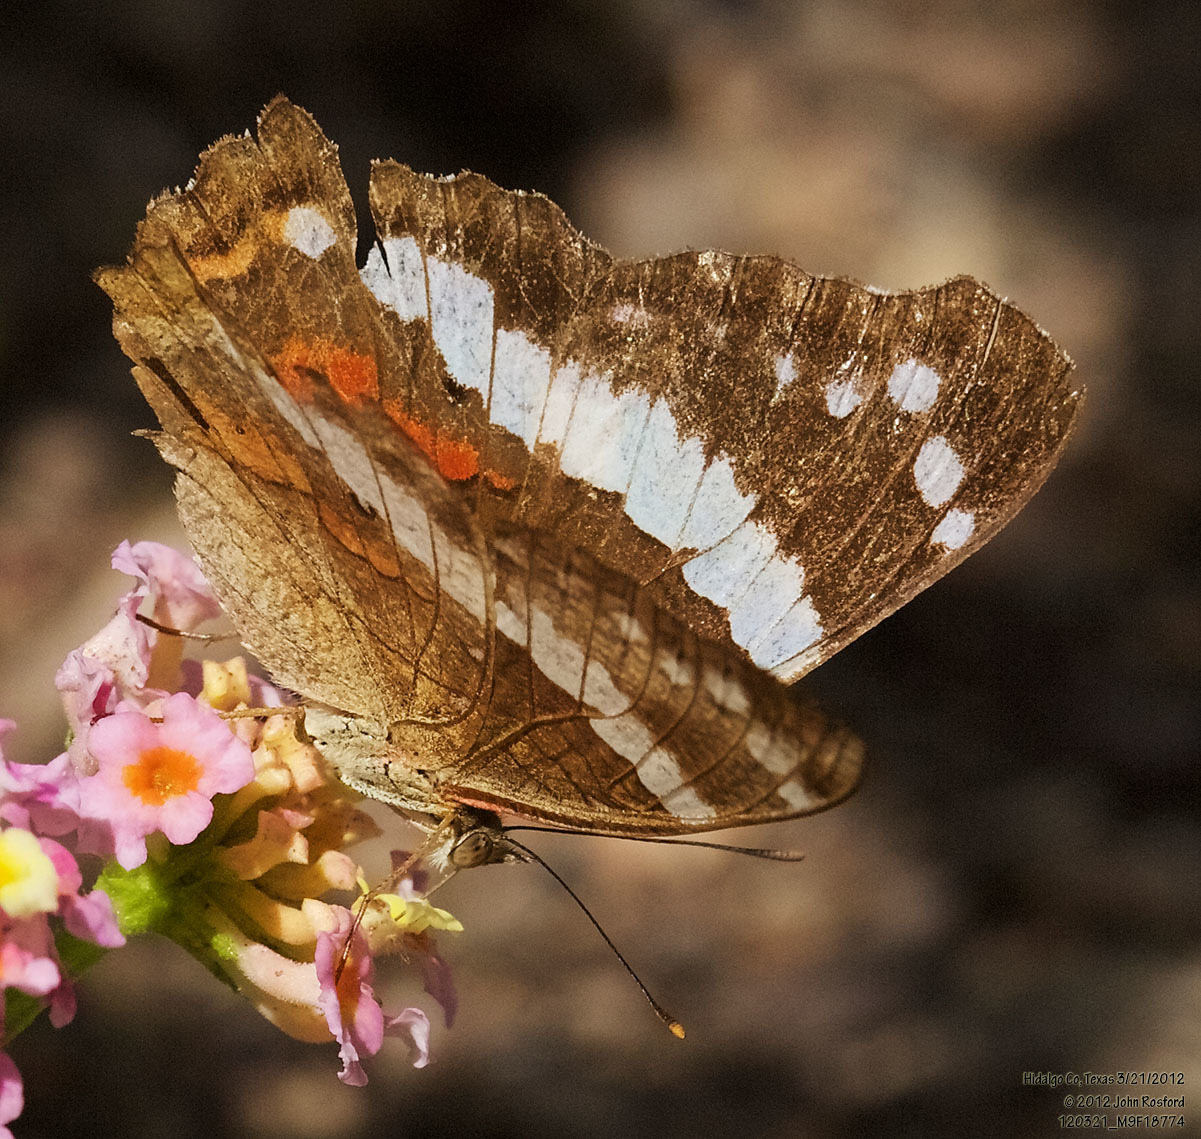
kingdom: Animalia
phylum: Arthropoda
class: Insecta
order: Lepidoptera
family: Nymphalidae
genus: Anartia
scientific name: Anartia fatima
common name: Banded peacock
